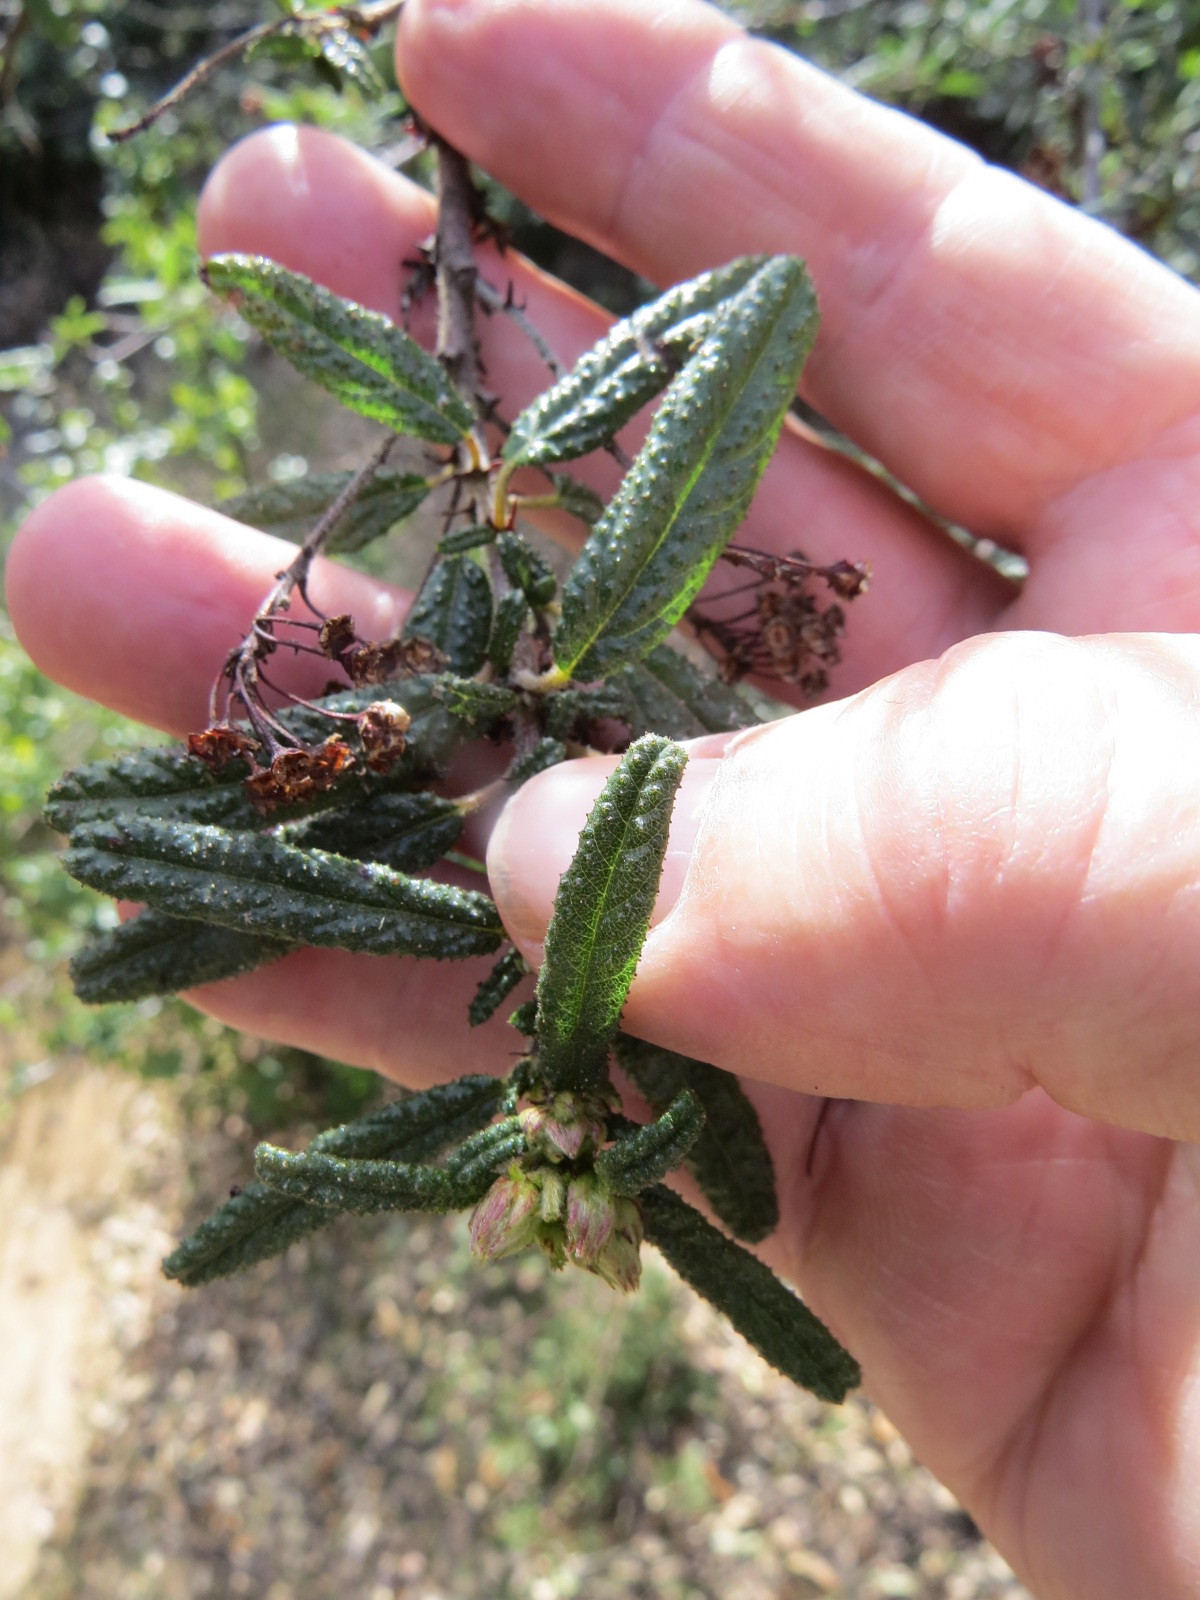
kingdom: Plantae
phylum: Tracheophyta
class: Magnoliopsida
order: Rosales
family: Rhamnaceae
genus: Ceanothus
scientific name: Ceanothus papillosus
